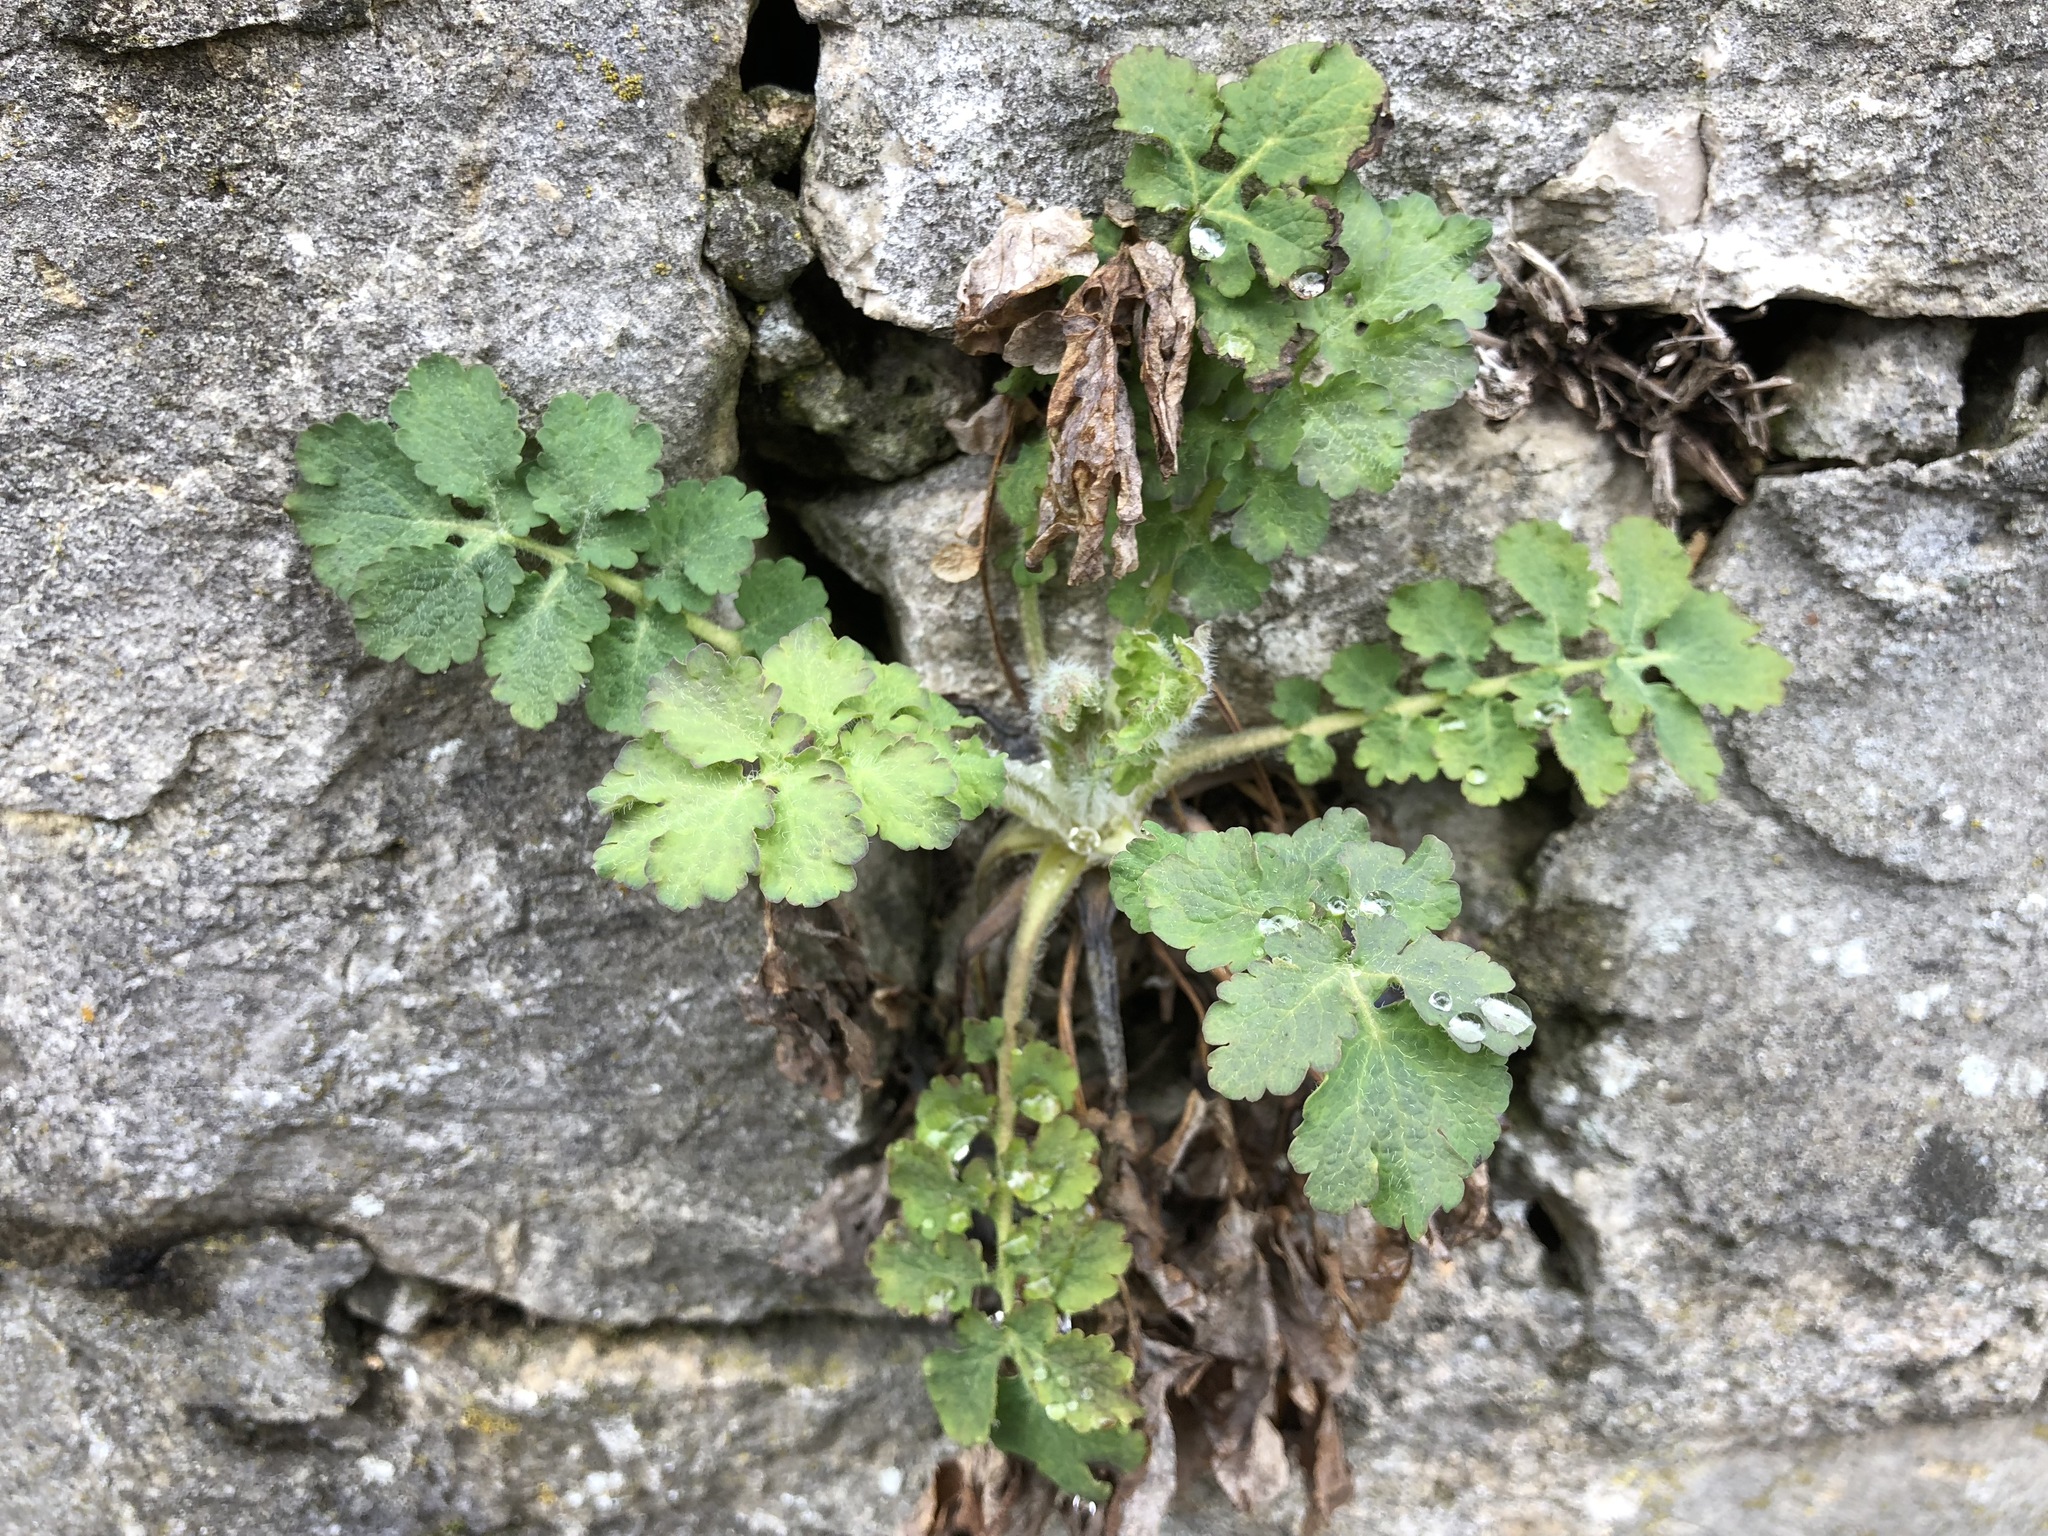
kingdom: Plantae
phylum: Tracheophyta
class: Magnoliopsida
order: Ranunculales
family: Papaveraceae
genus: Chelidonium
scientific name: Chelidonium majus
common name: Greater celandine
